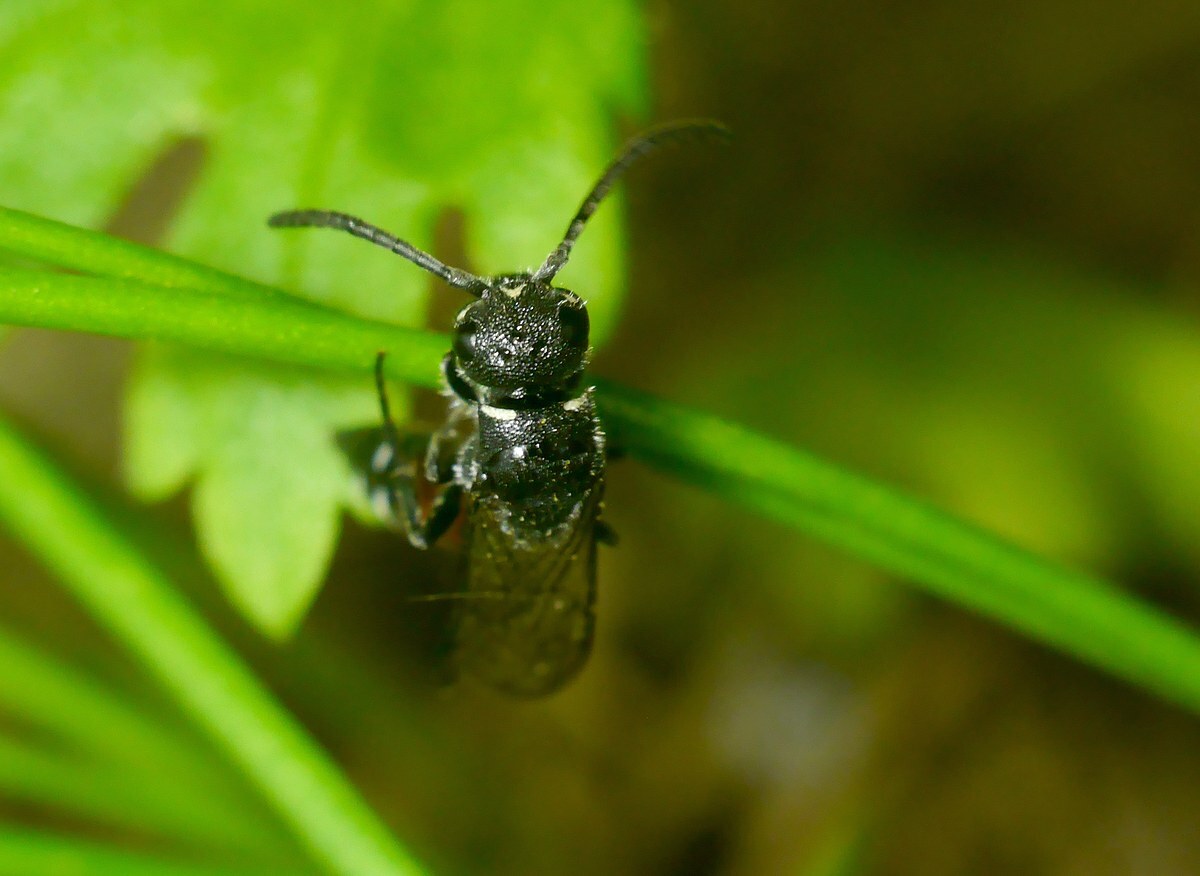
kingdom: Animalia
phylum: Arthropoda
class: Insecta
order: Hymenoptera
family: Sapygidae
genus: Sapyga
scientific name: Sapyga quinquepunctata
